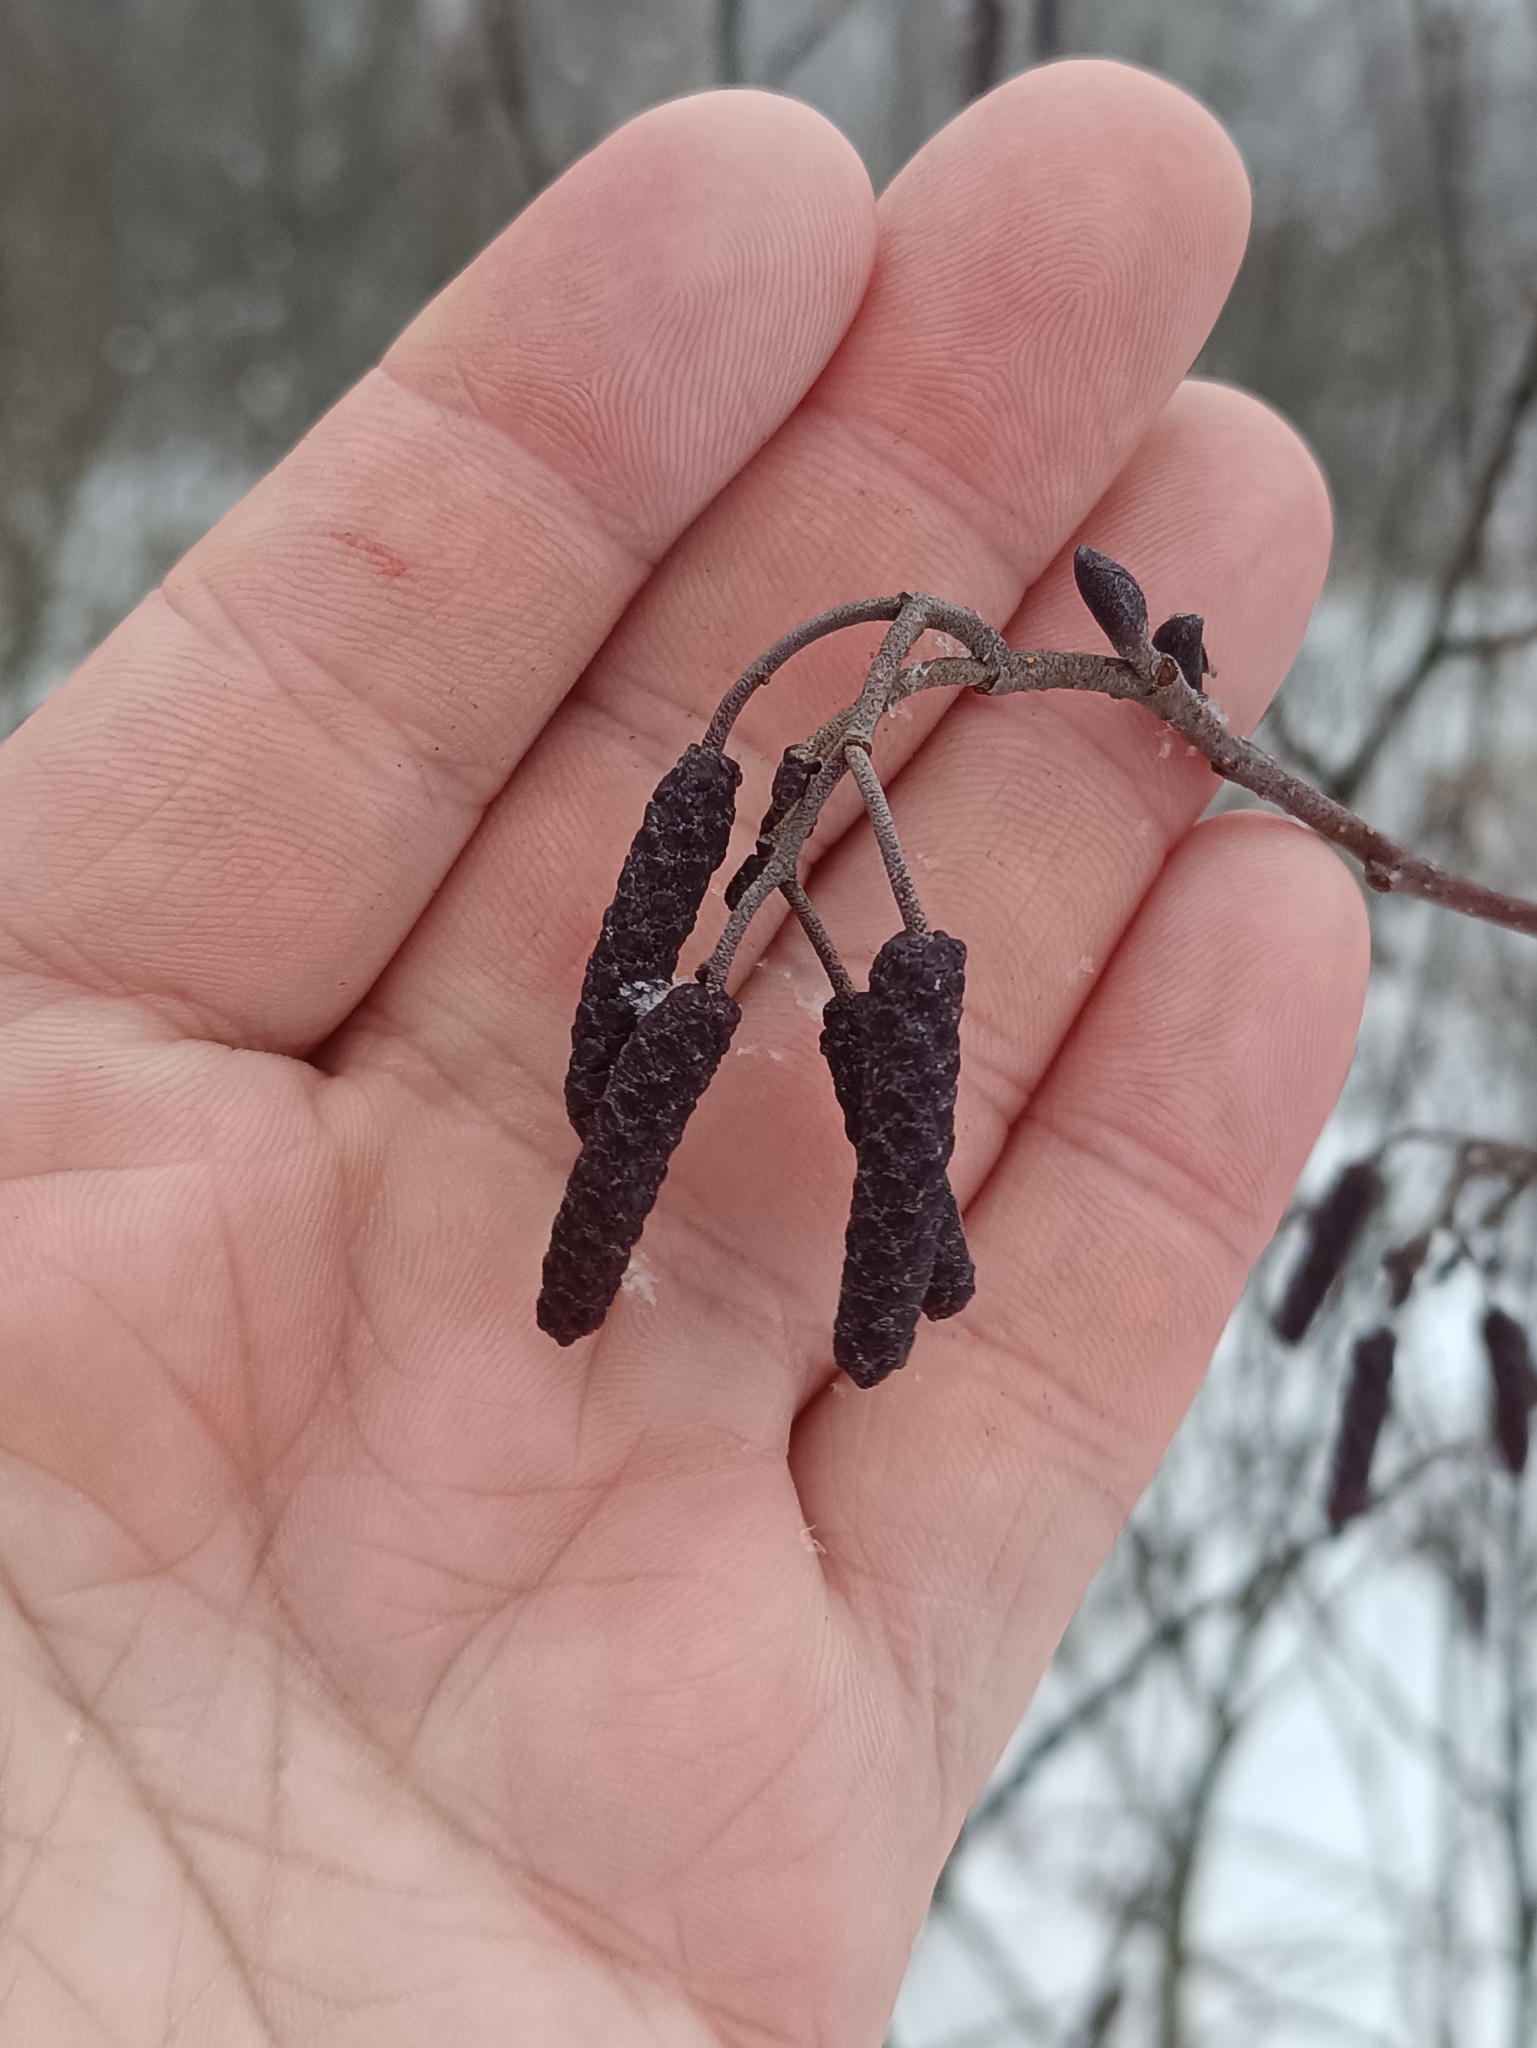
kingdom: Plantae
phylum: Tracheophyta
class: Magnoliopsida
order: Fagales
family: Betulaceae
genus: Alnus
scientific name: Alnus incana
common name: Grey alder
